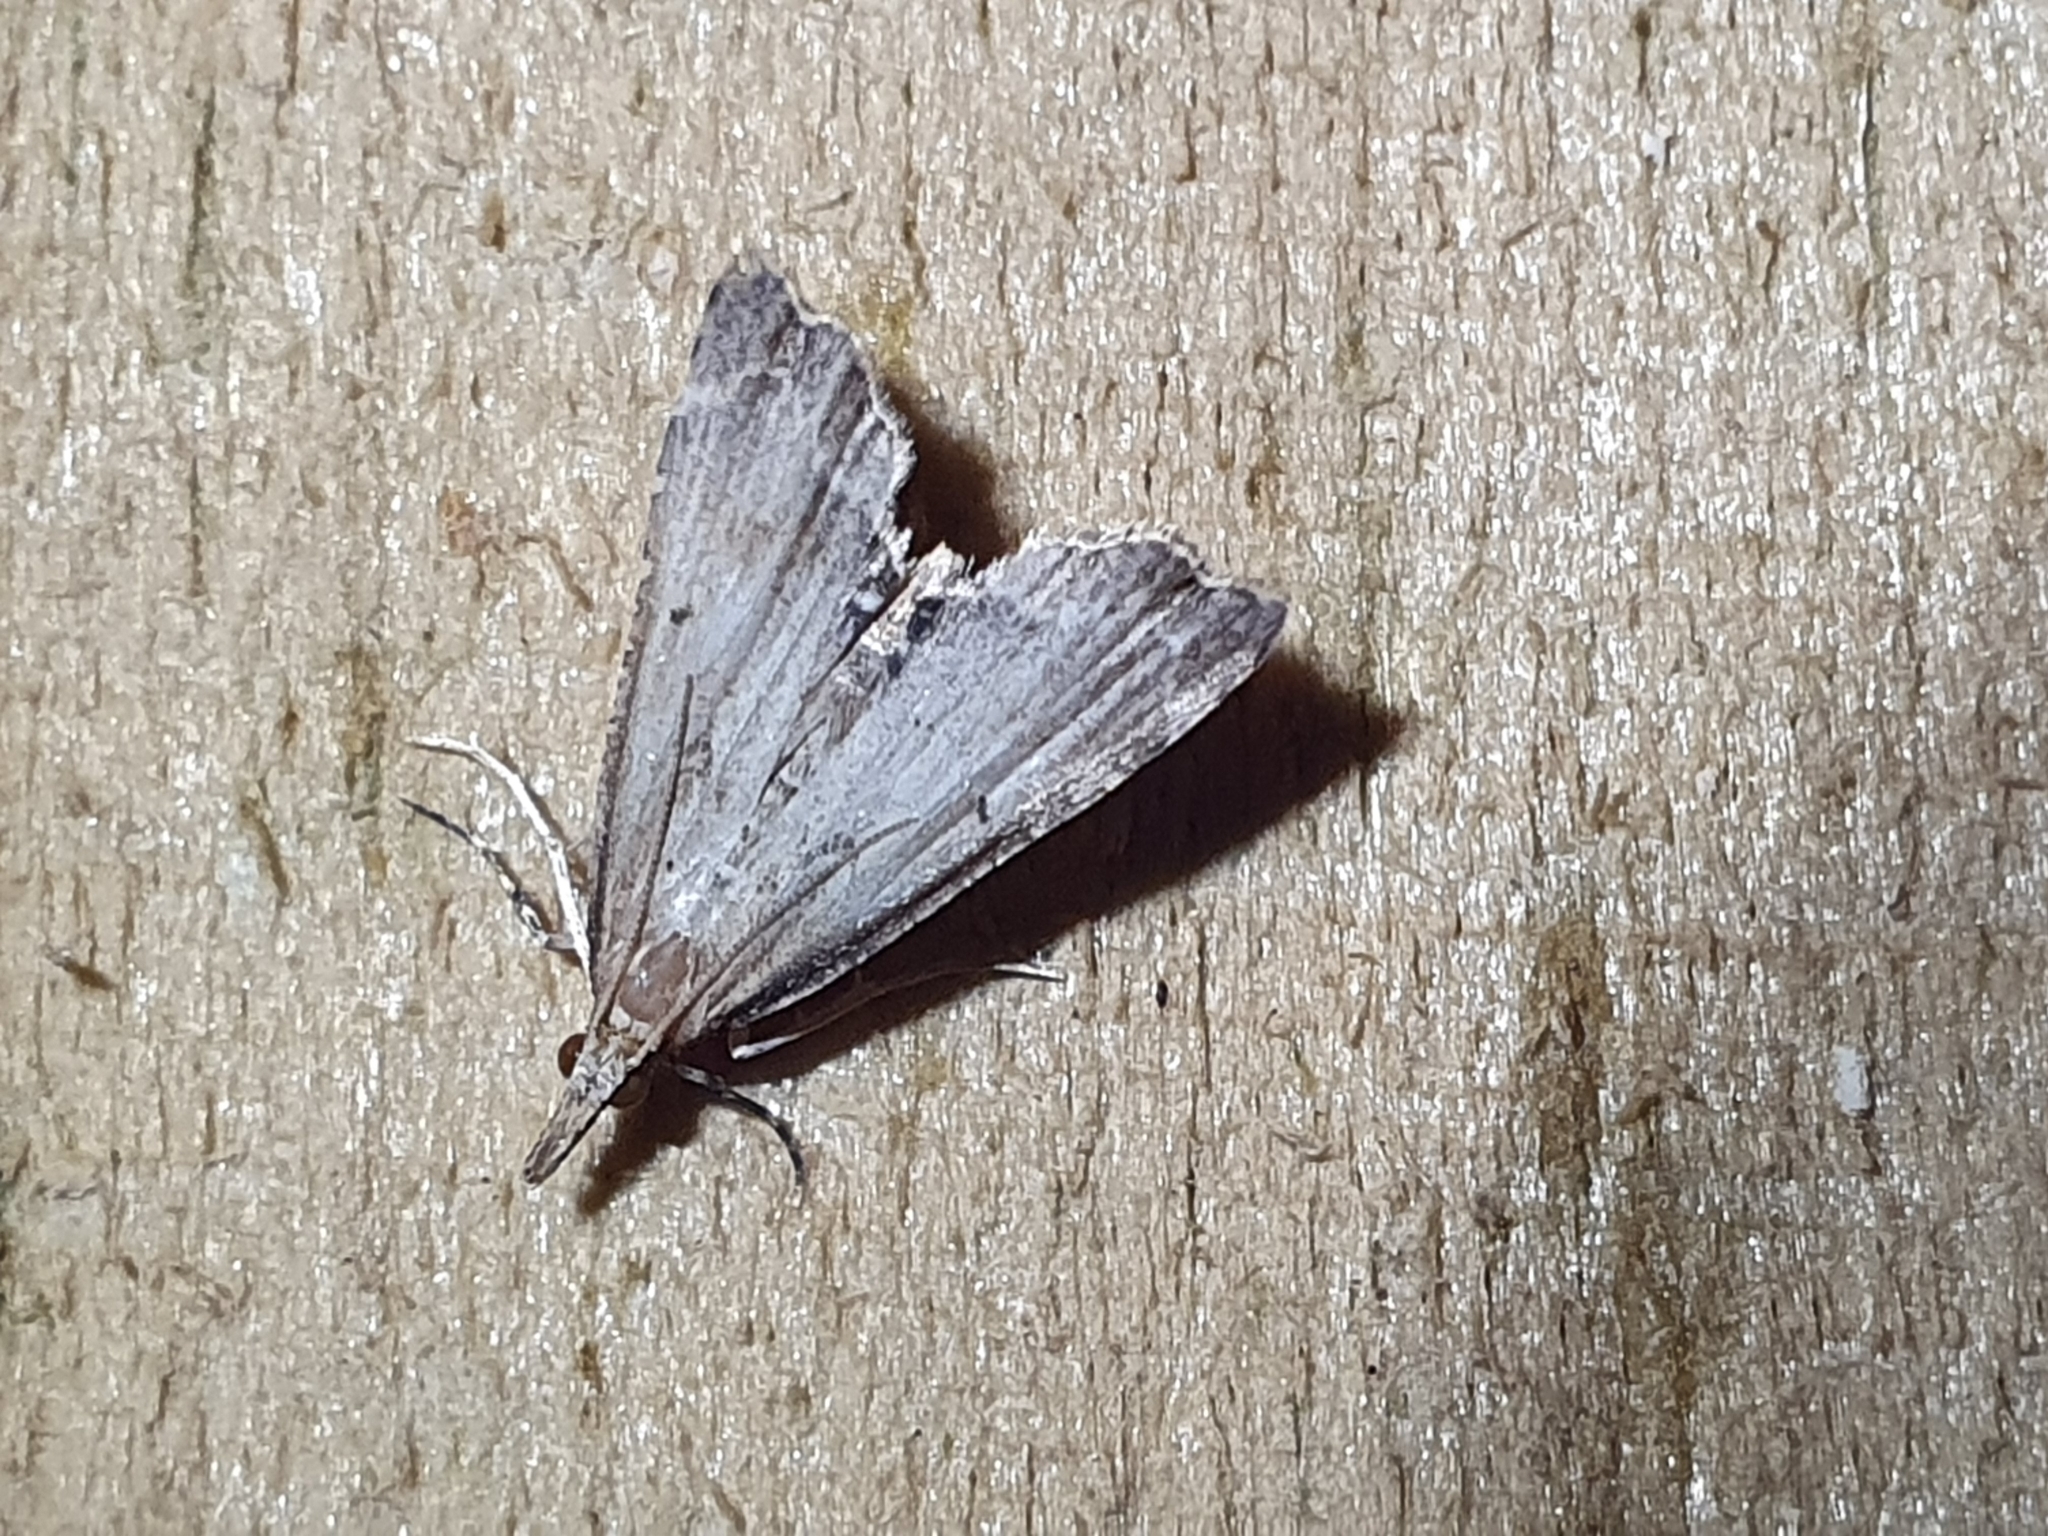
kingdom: Animalia
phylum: Arthropoda
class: Insecta
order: Lepidoptera
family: Crambidae
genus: Diplopseustis
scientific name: Diplopseustis perieresalis
